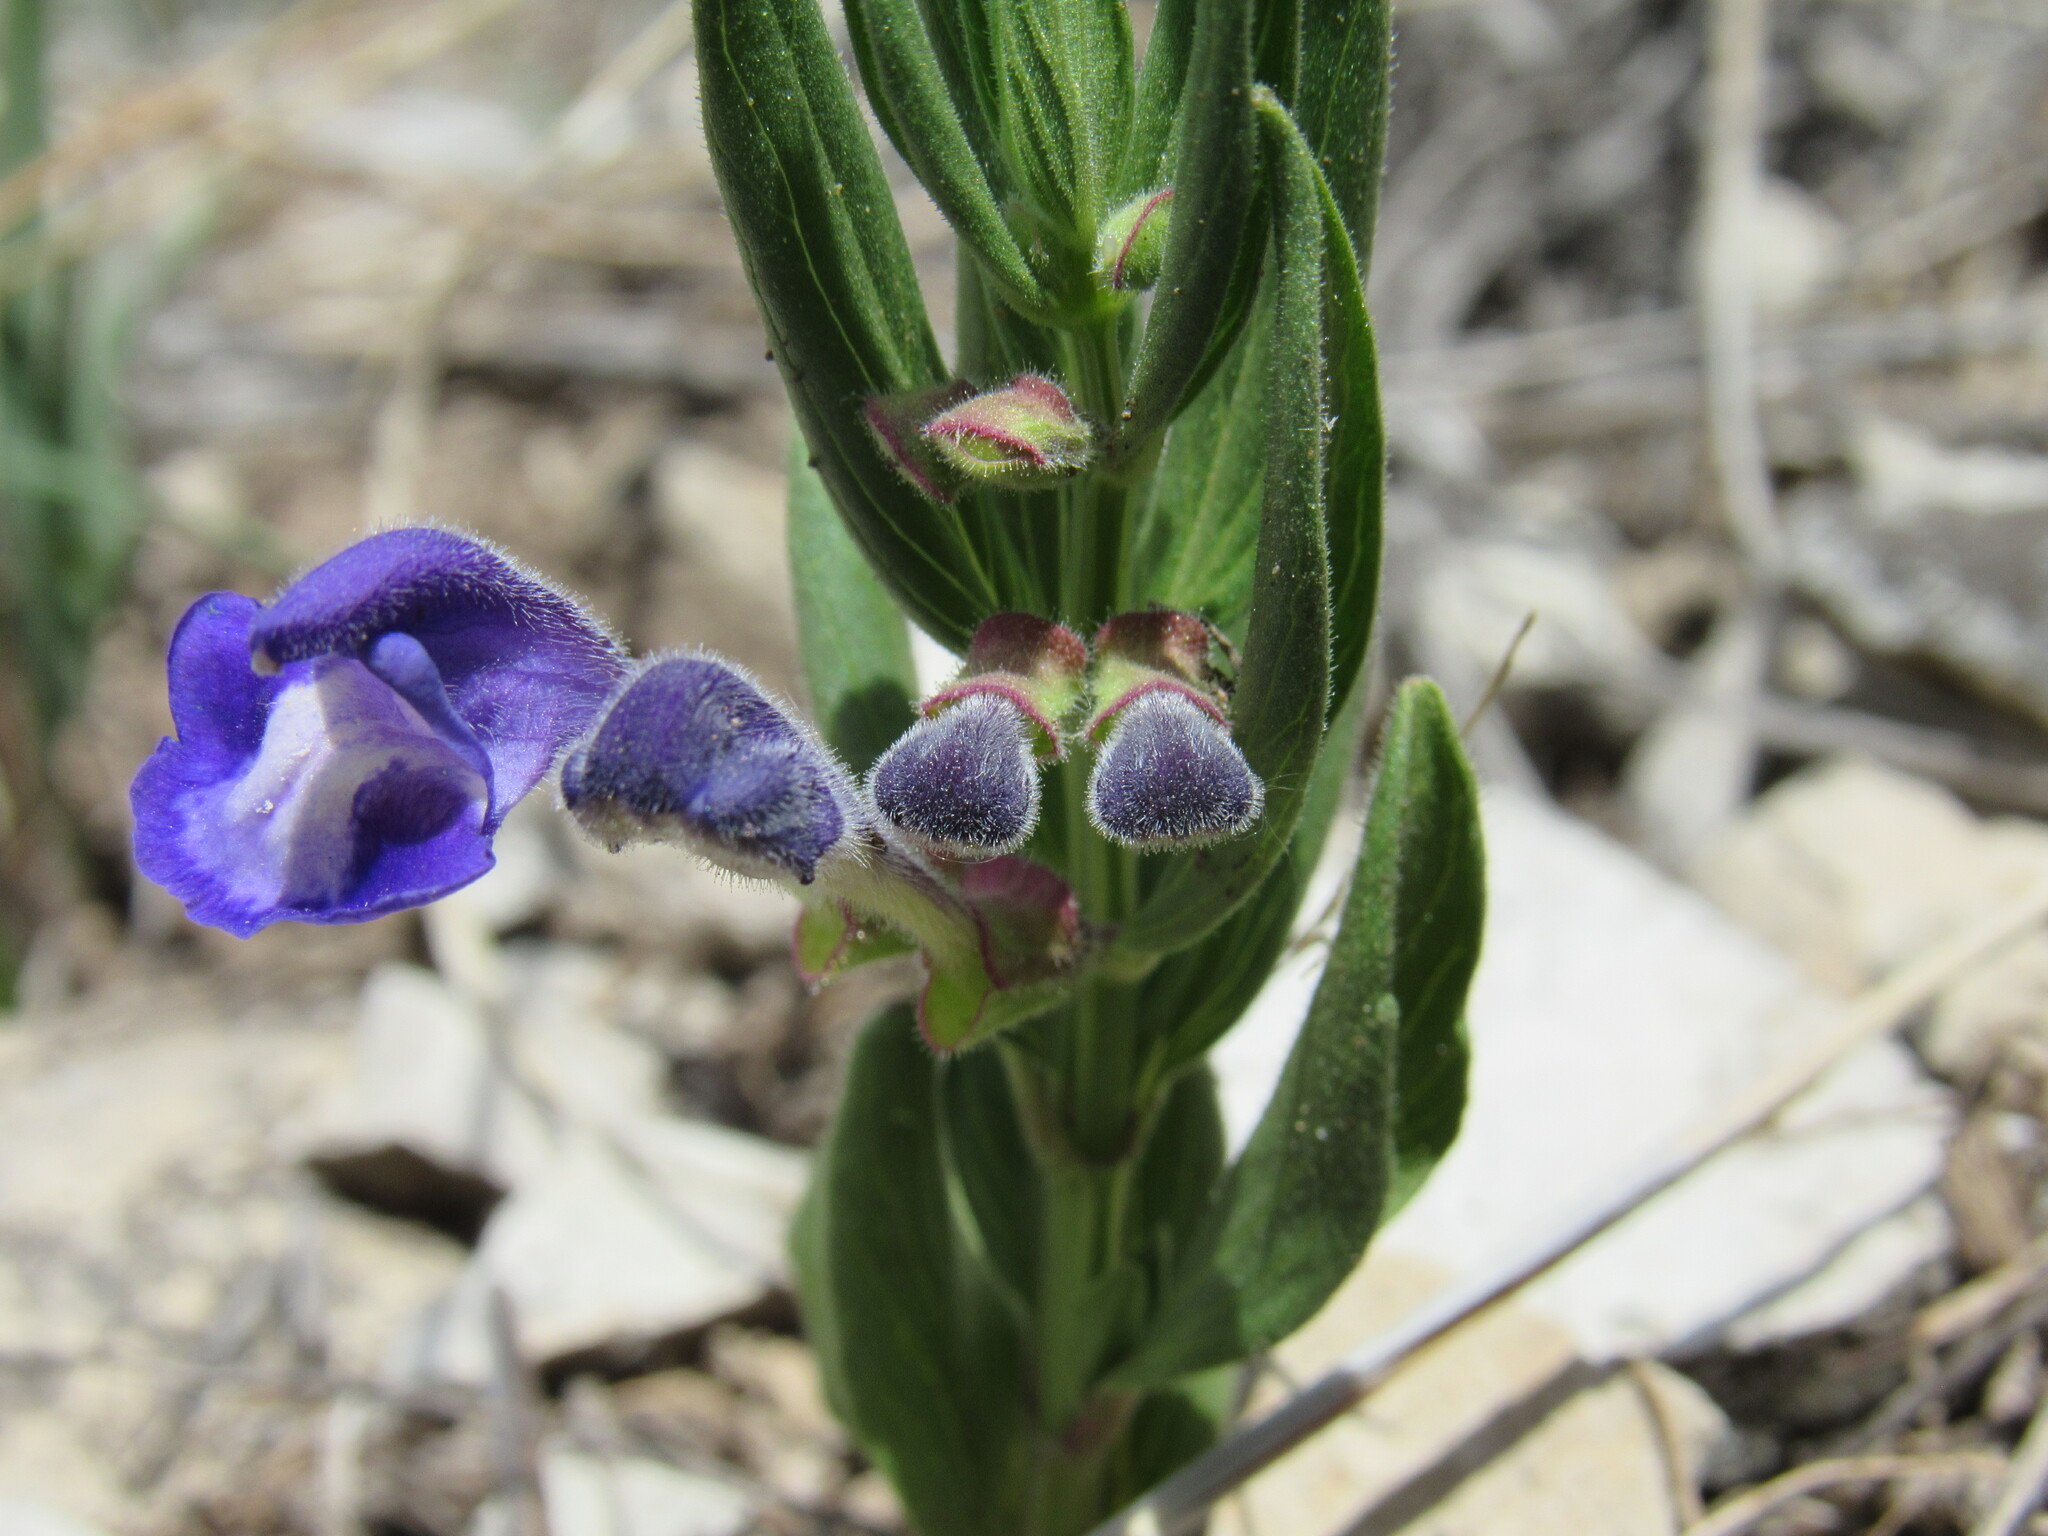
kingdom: Plantae
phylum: Tracheophyta
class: Magnoliopsida
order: Lamiales
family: Lamiaceae
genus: Scutellaria
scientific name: Scutellaria brittonii
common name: Britton's skullcap
